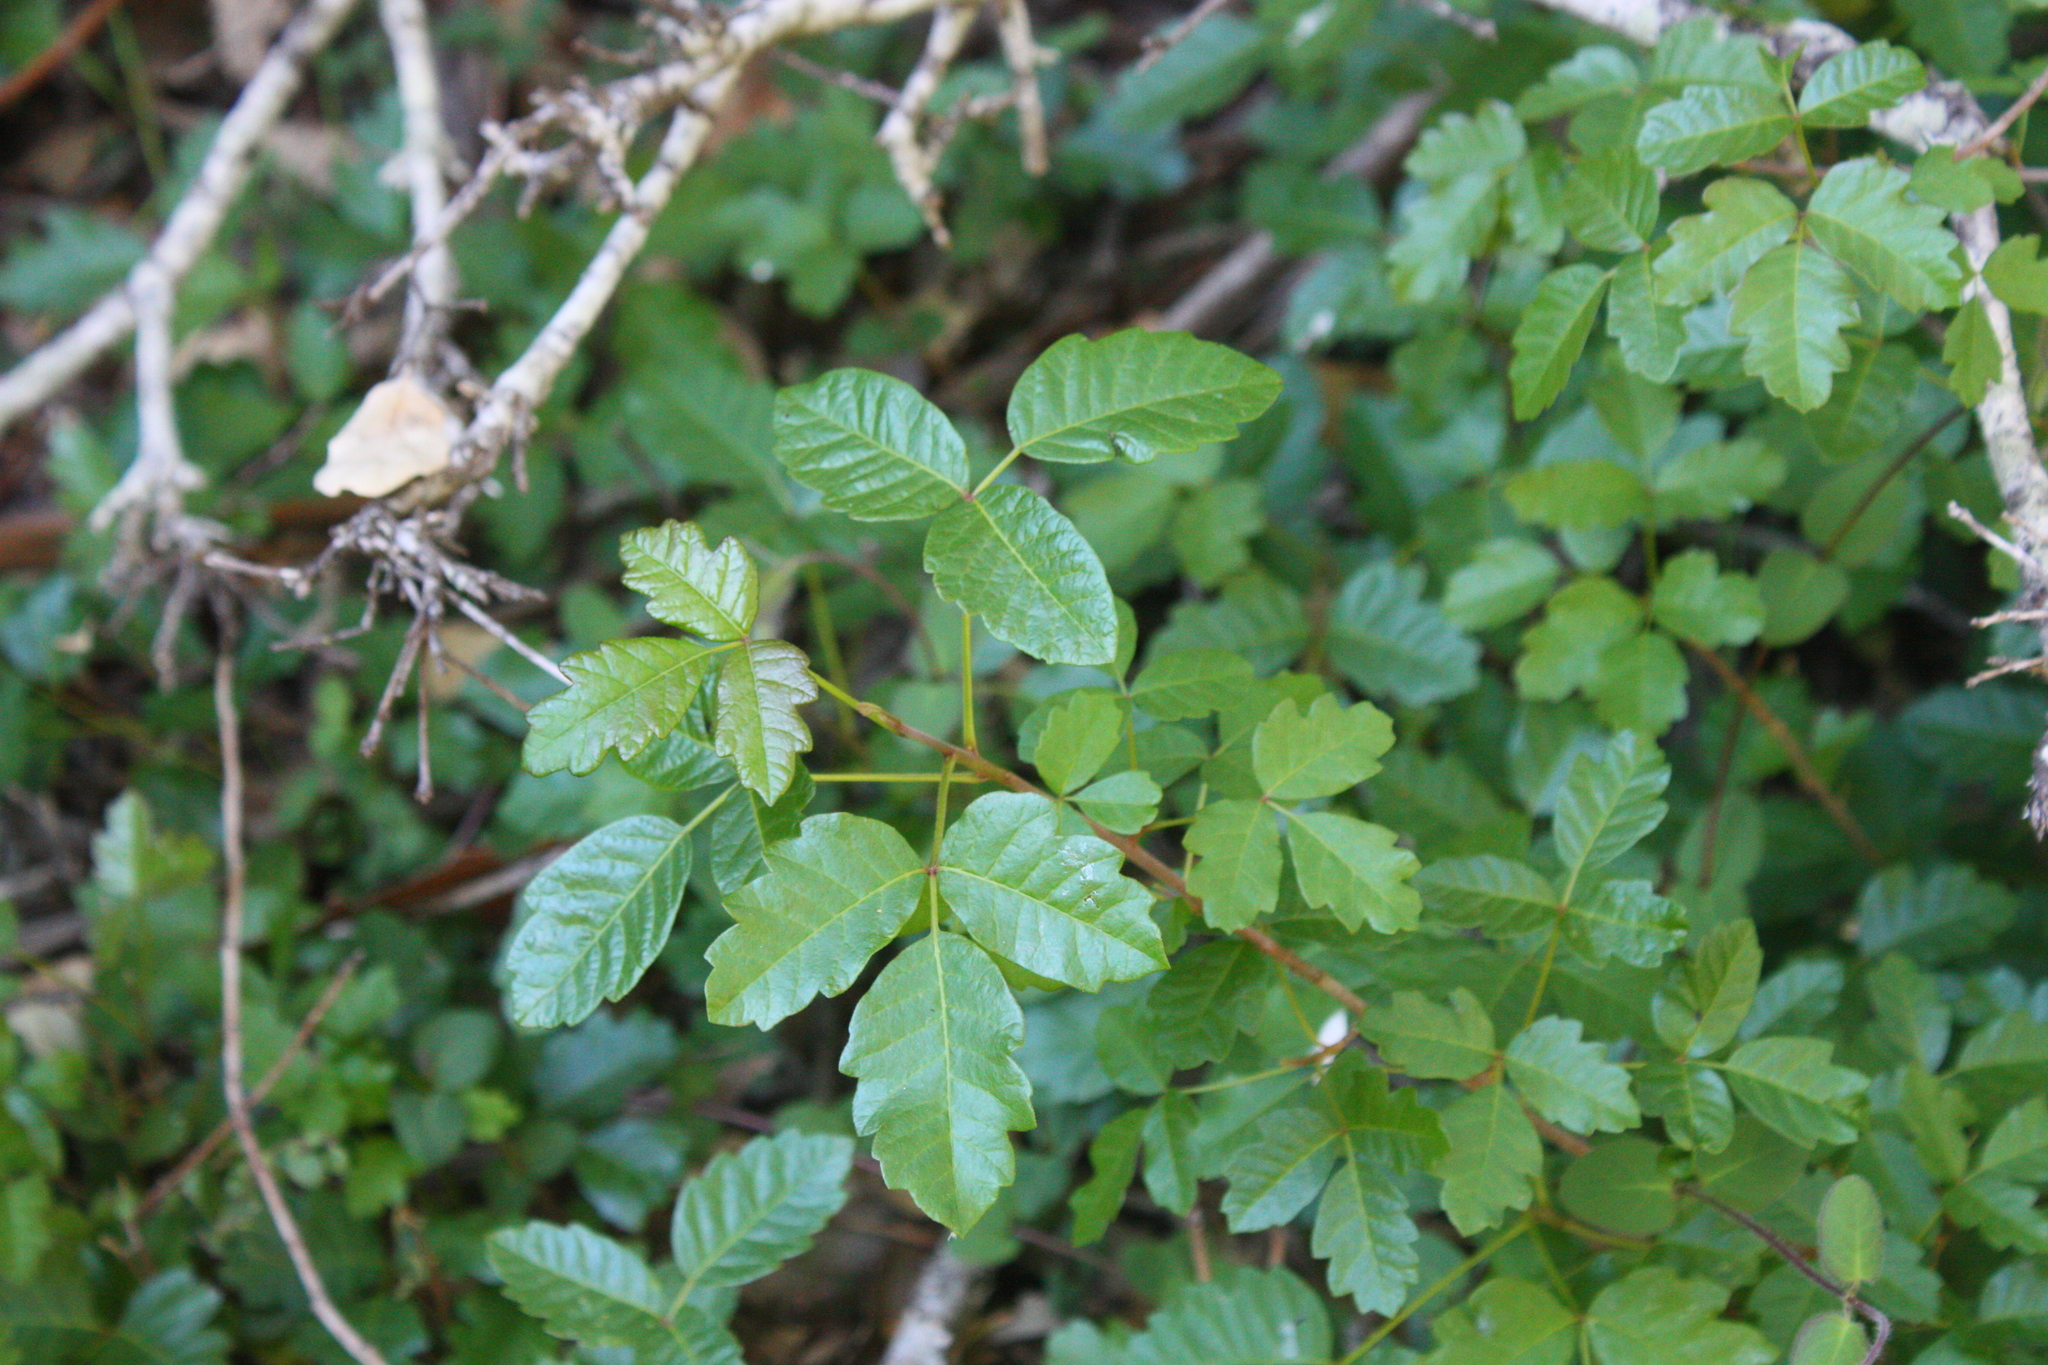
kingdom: Plantae
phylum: Tracheophyta
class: Magnoliopsida
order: Sapindales
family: Anacardiaceae
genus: Toxicodendron
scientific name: Toxicodendron diversilobum
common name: Pacific poison-oak
